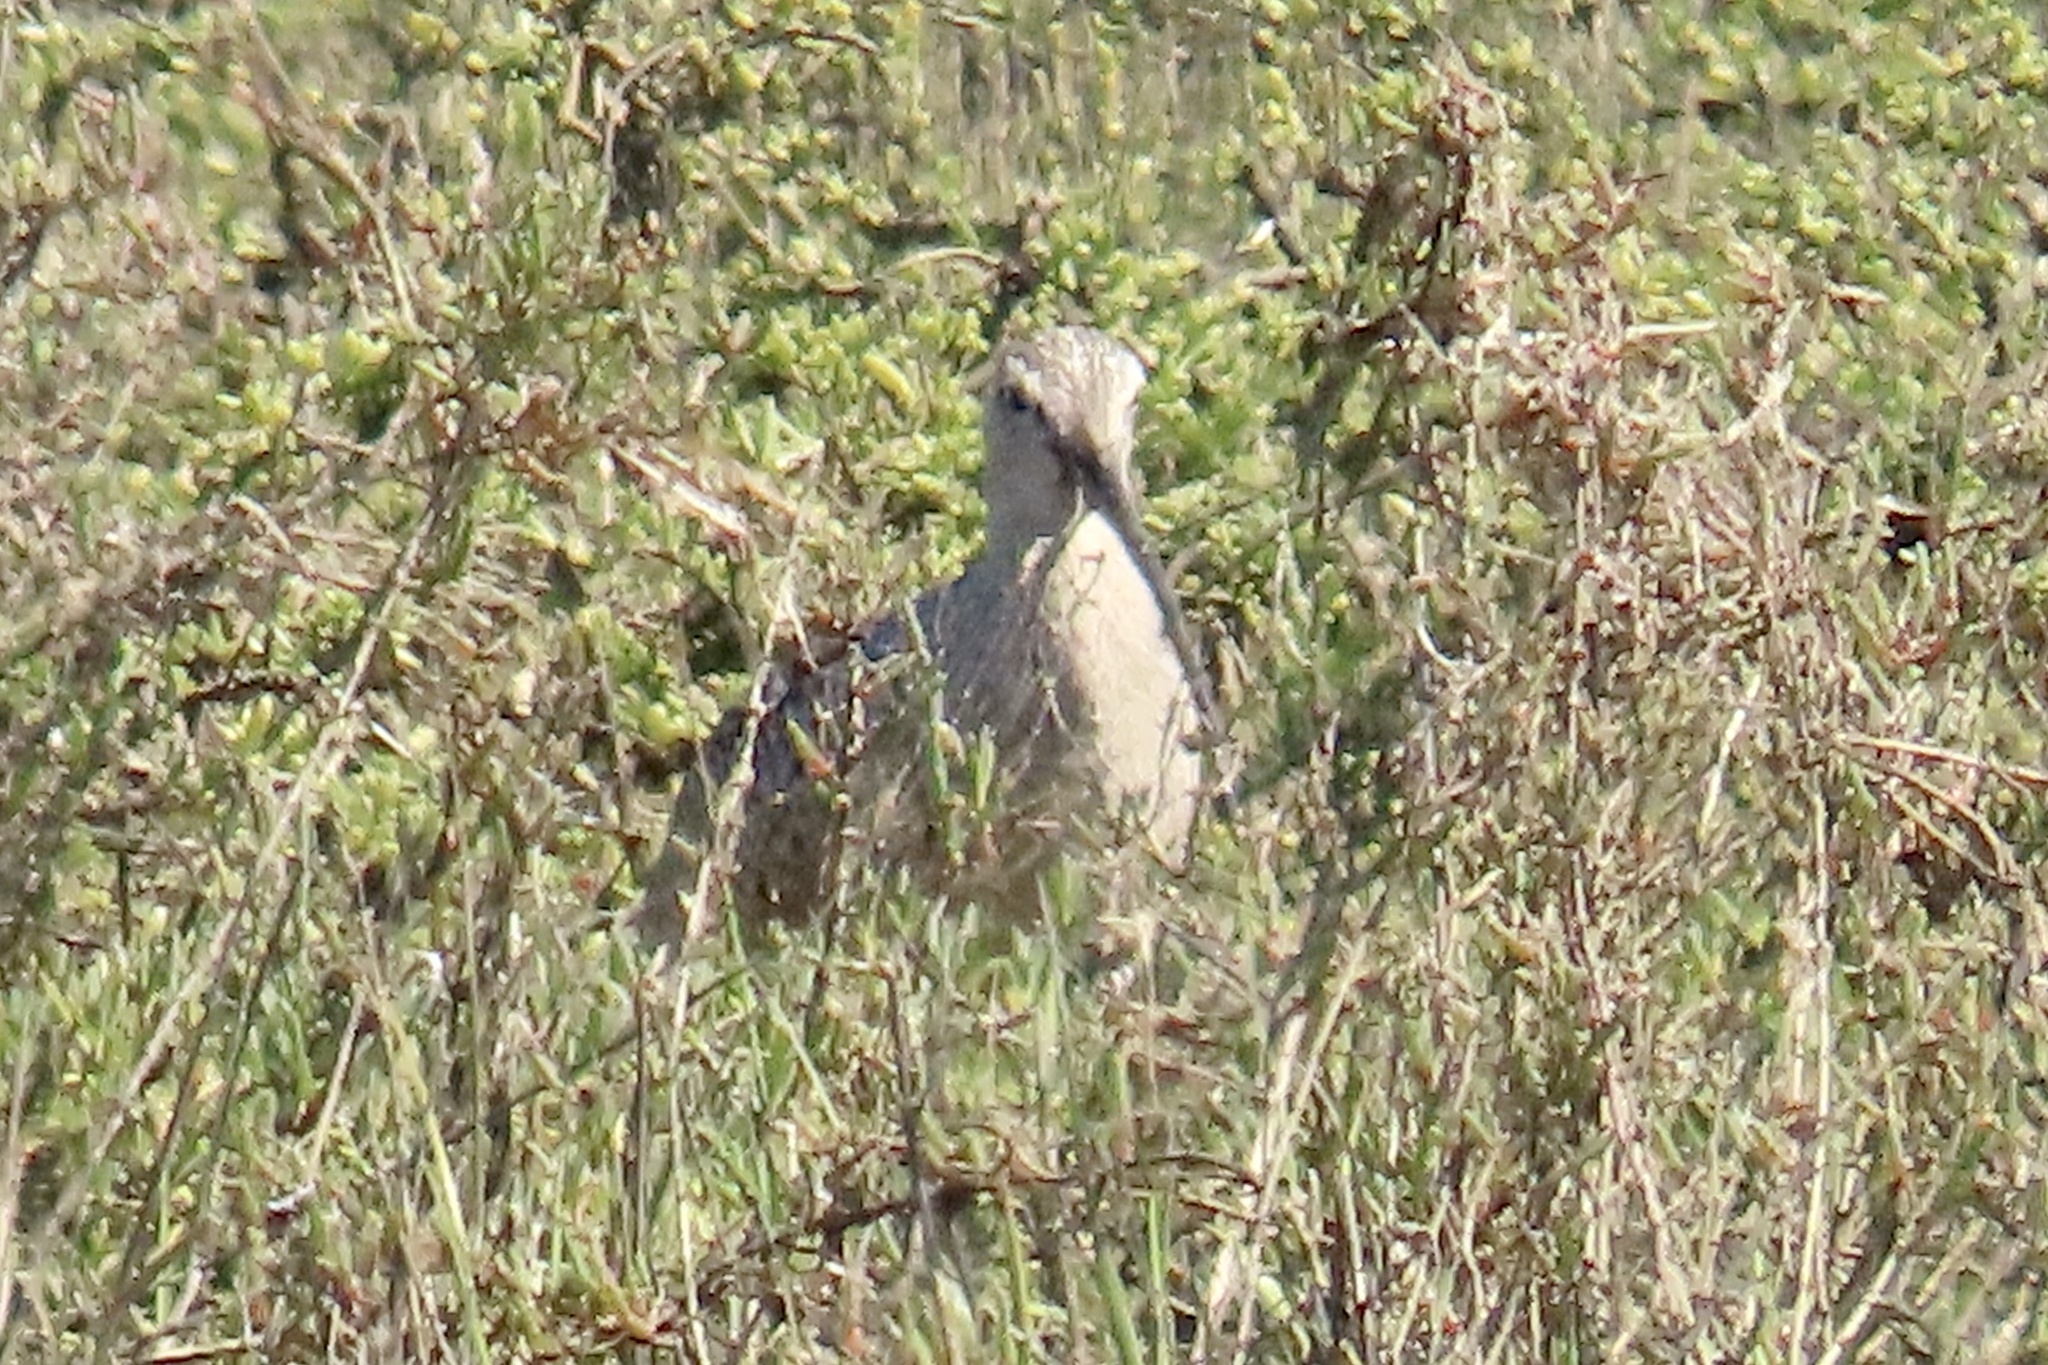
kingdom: Animalia
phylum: Chordata
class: Aves
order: Charadriiformes
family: Scolopacidae
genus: Numenius
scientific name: Numenius americanus
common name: Long-billed curlew
